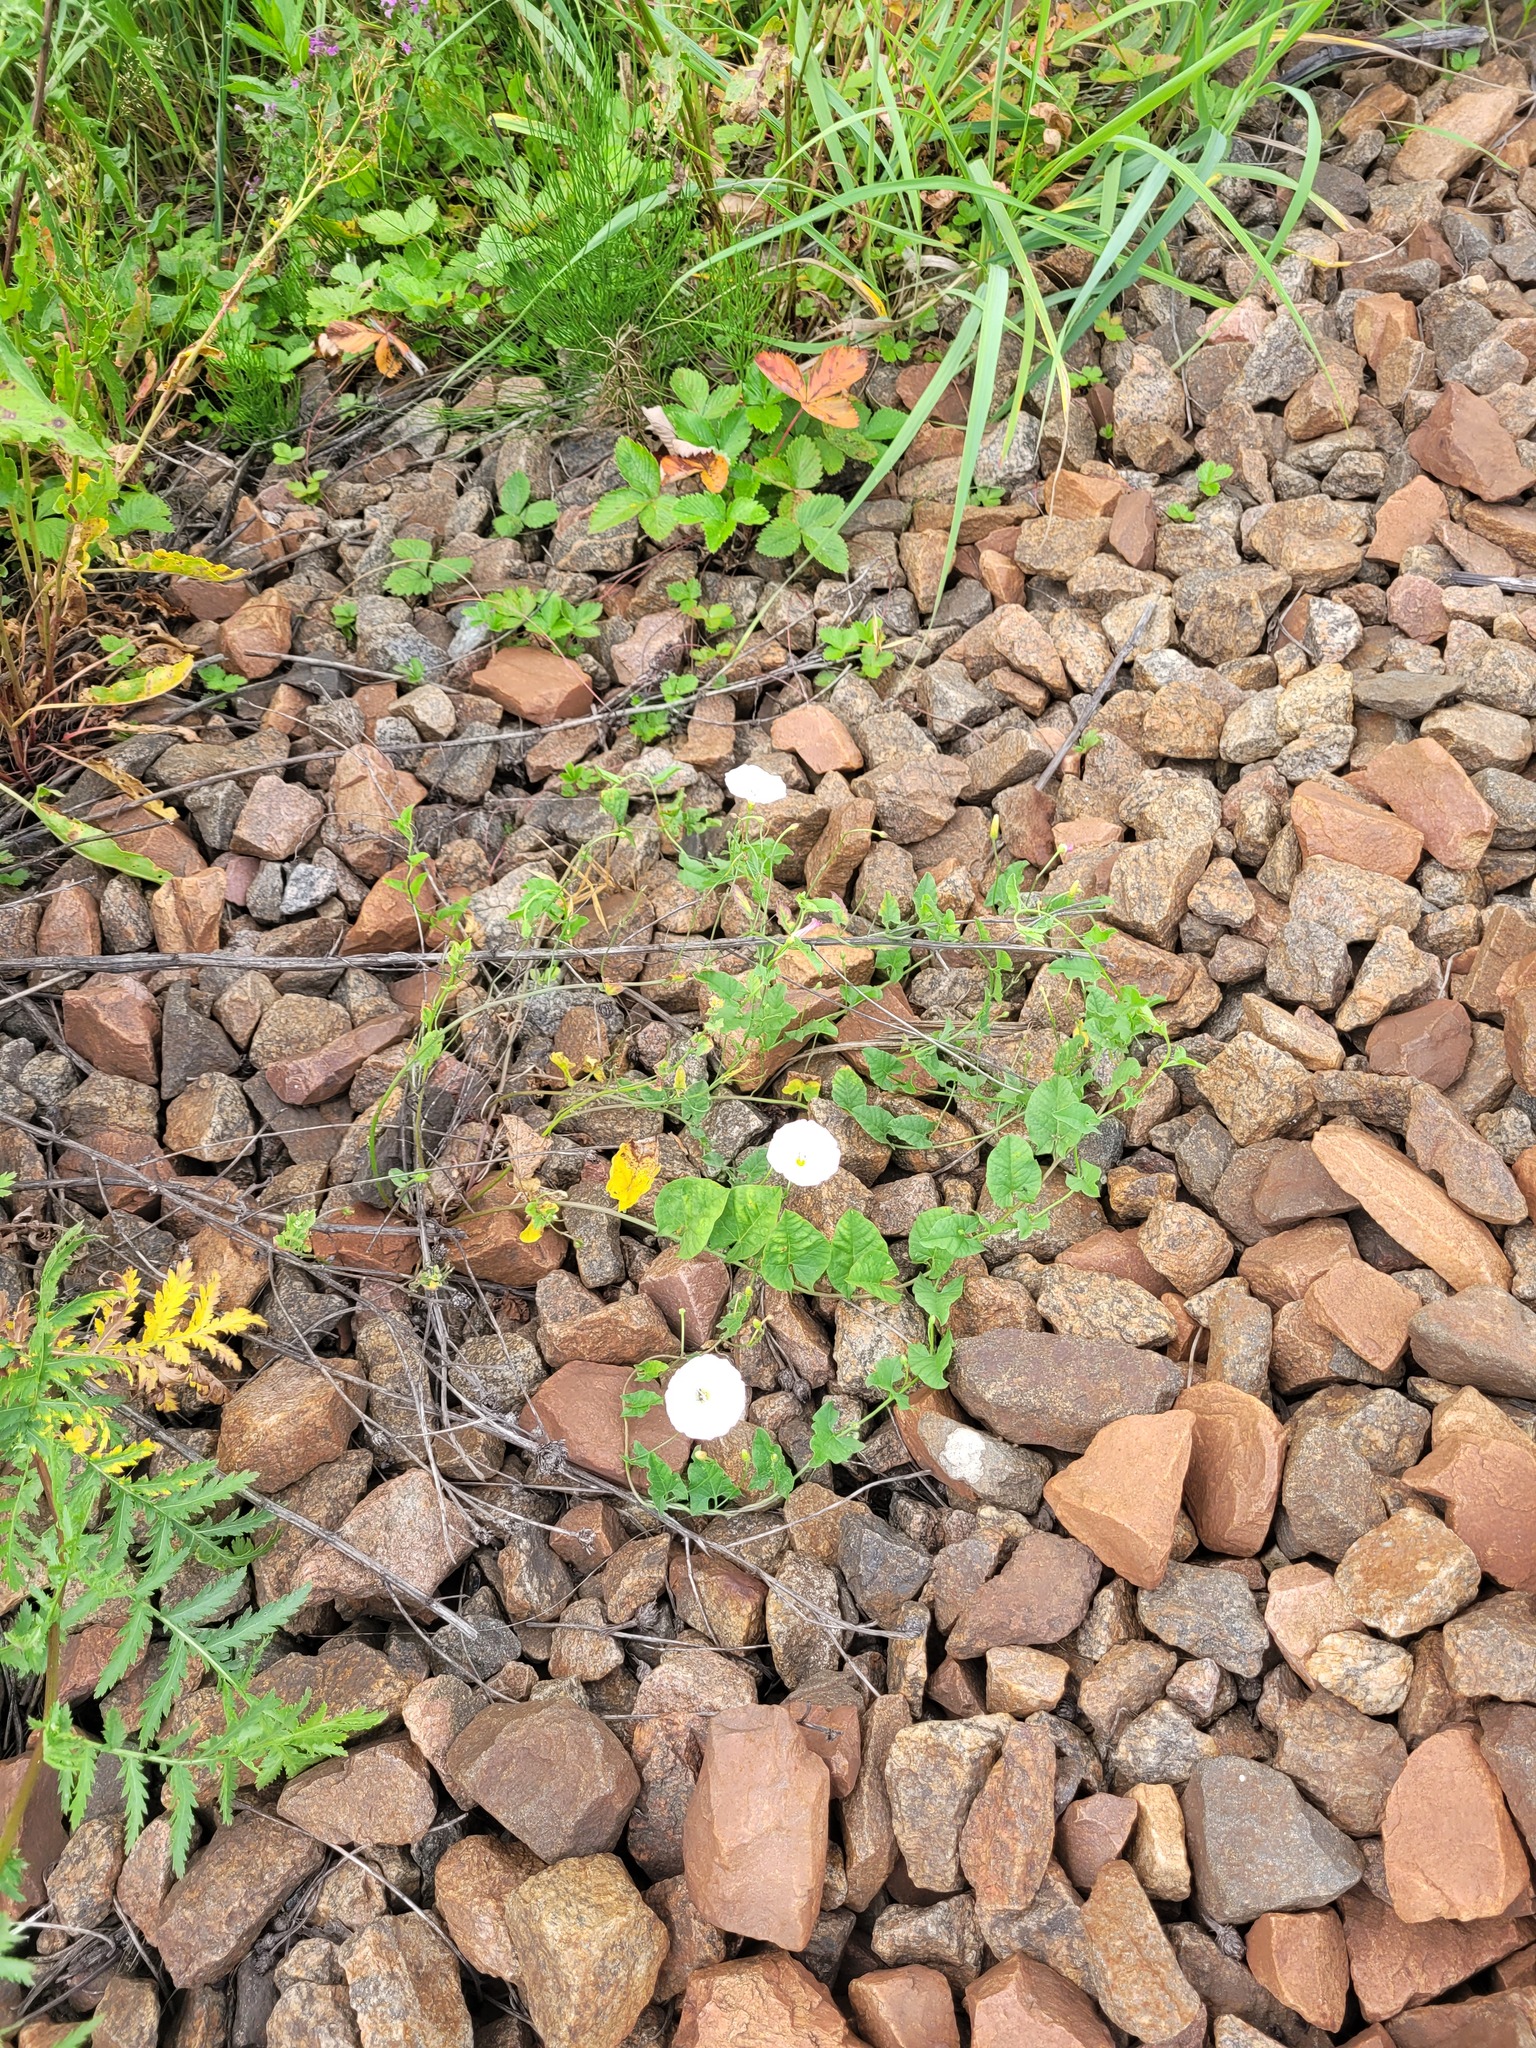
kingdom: Plantae
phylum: Tracheophyta
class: Magnoliopsida
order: Solanales
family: Convolvulaceae
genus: Convolvulus
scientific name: Convolvulus arvensis
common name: Field bindweed
